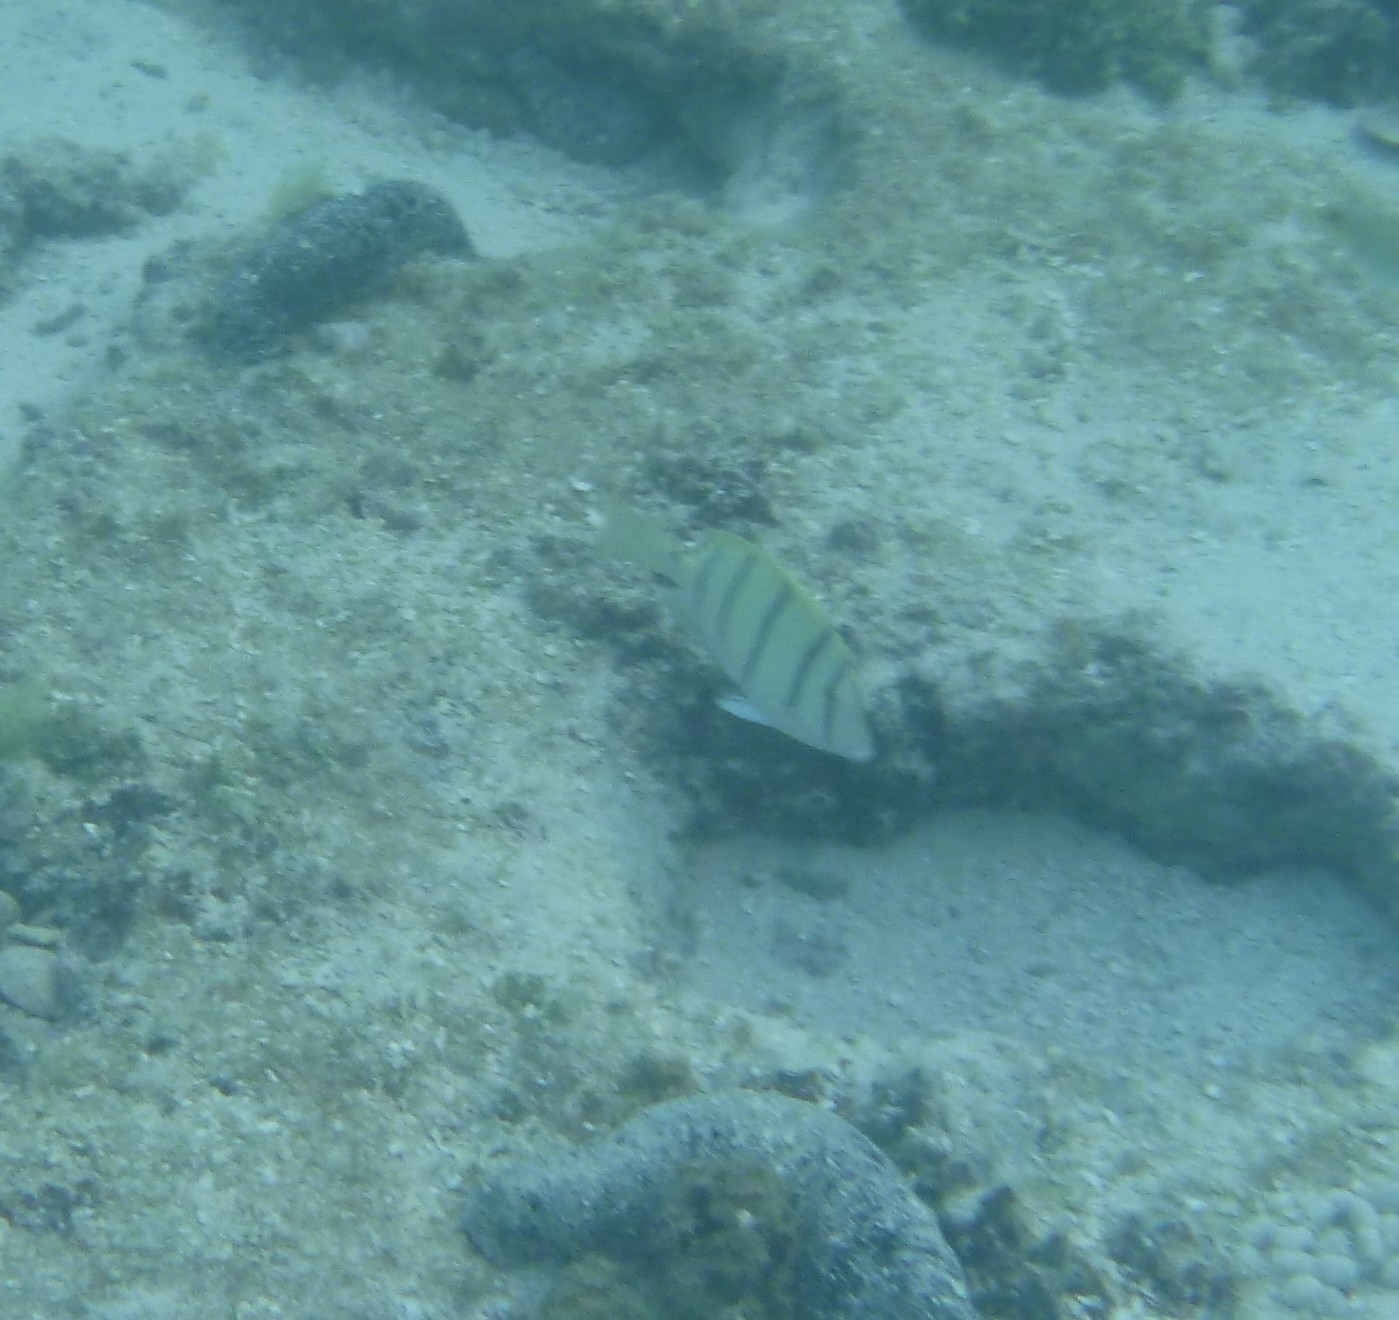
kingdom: Animalia
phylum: Chordata
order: Perciformes
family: Acanthuridae
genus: Acanthurus
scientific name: Acanthurus triostegus
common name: Convict surgeonfish
